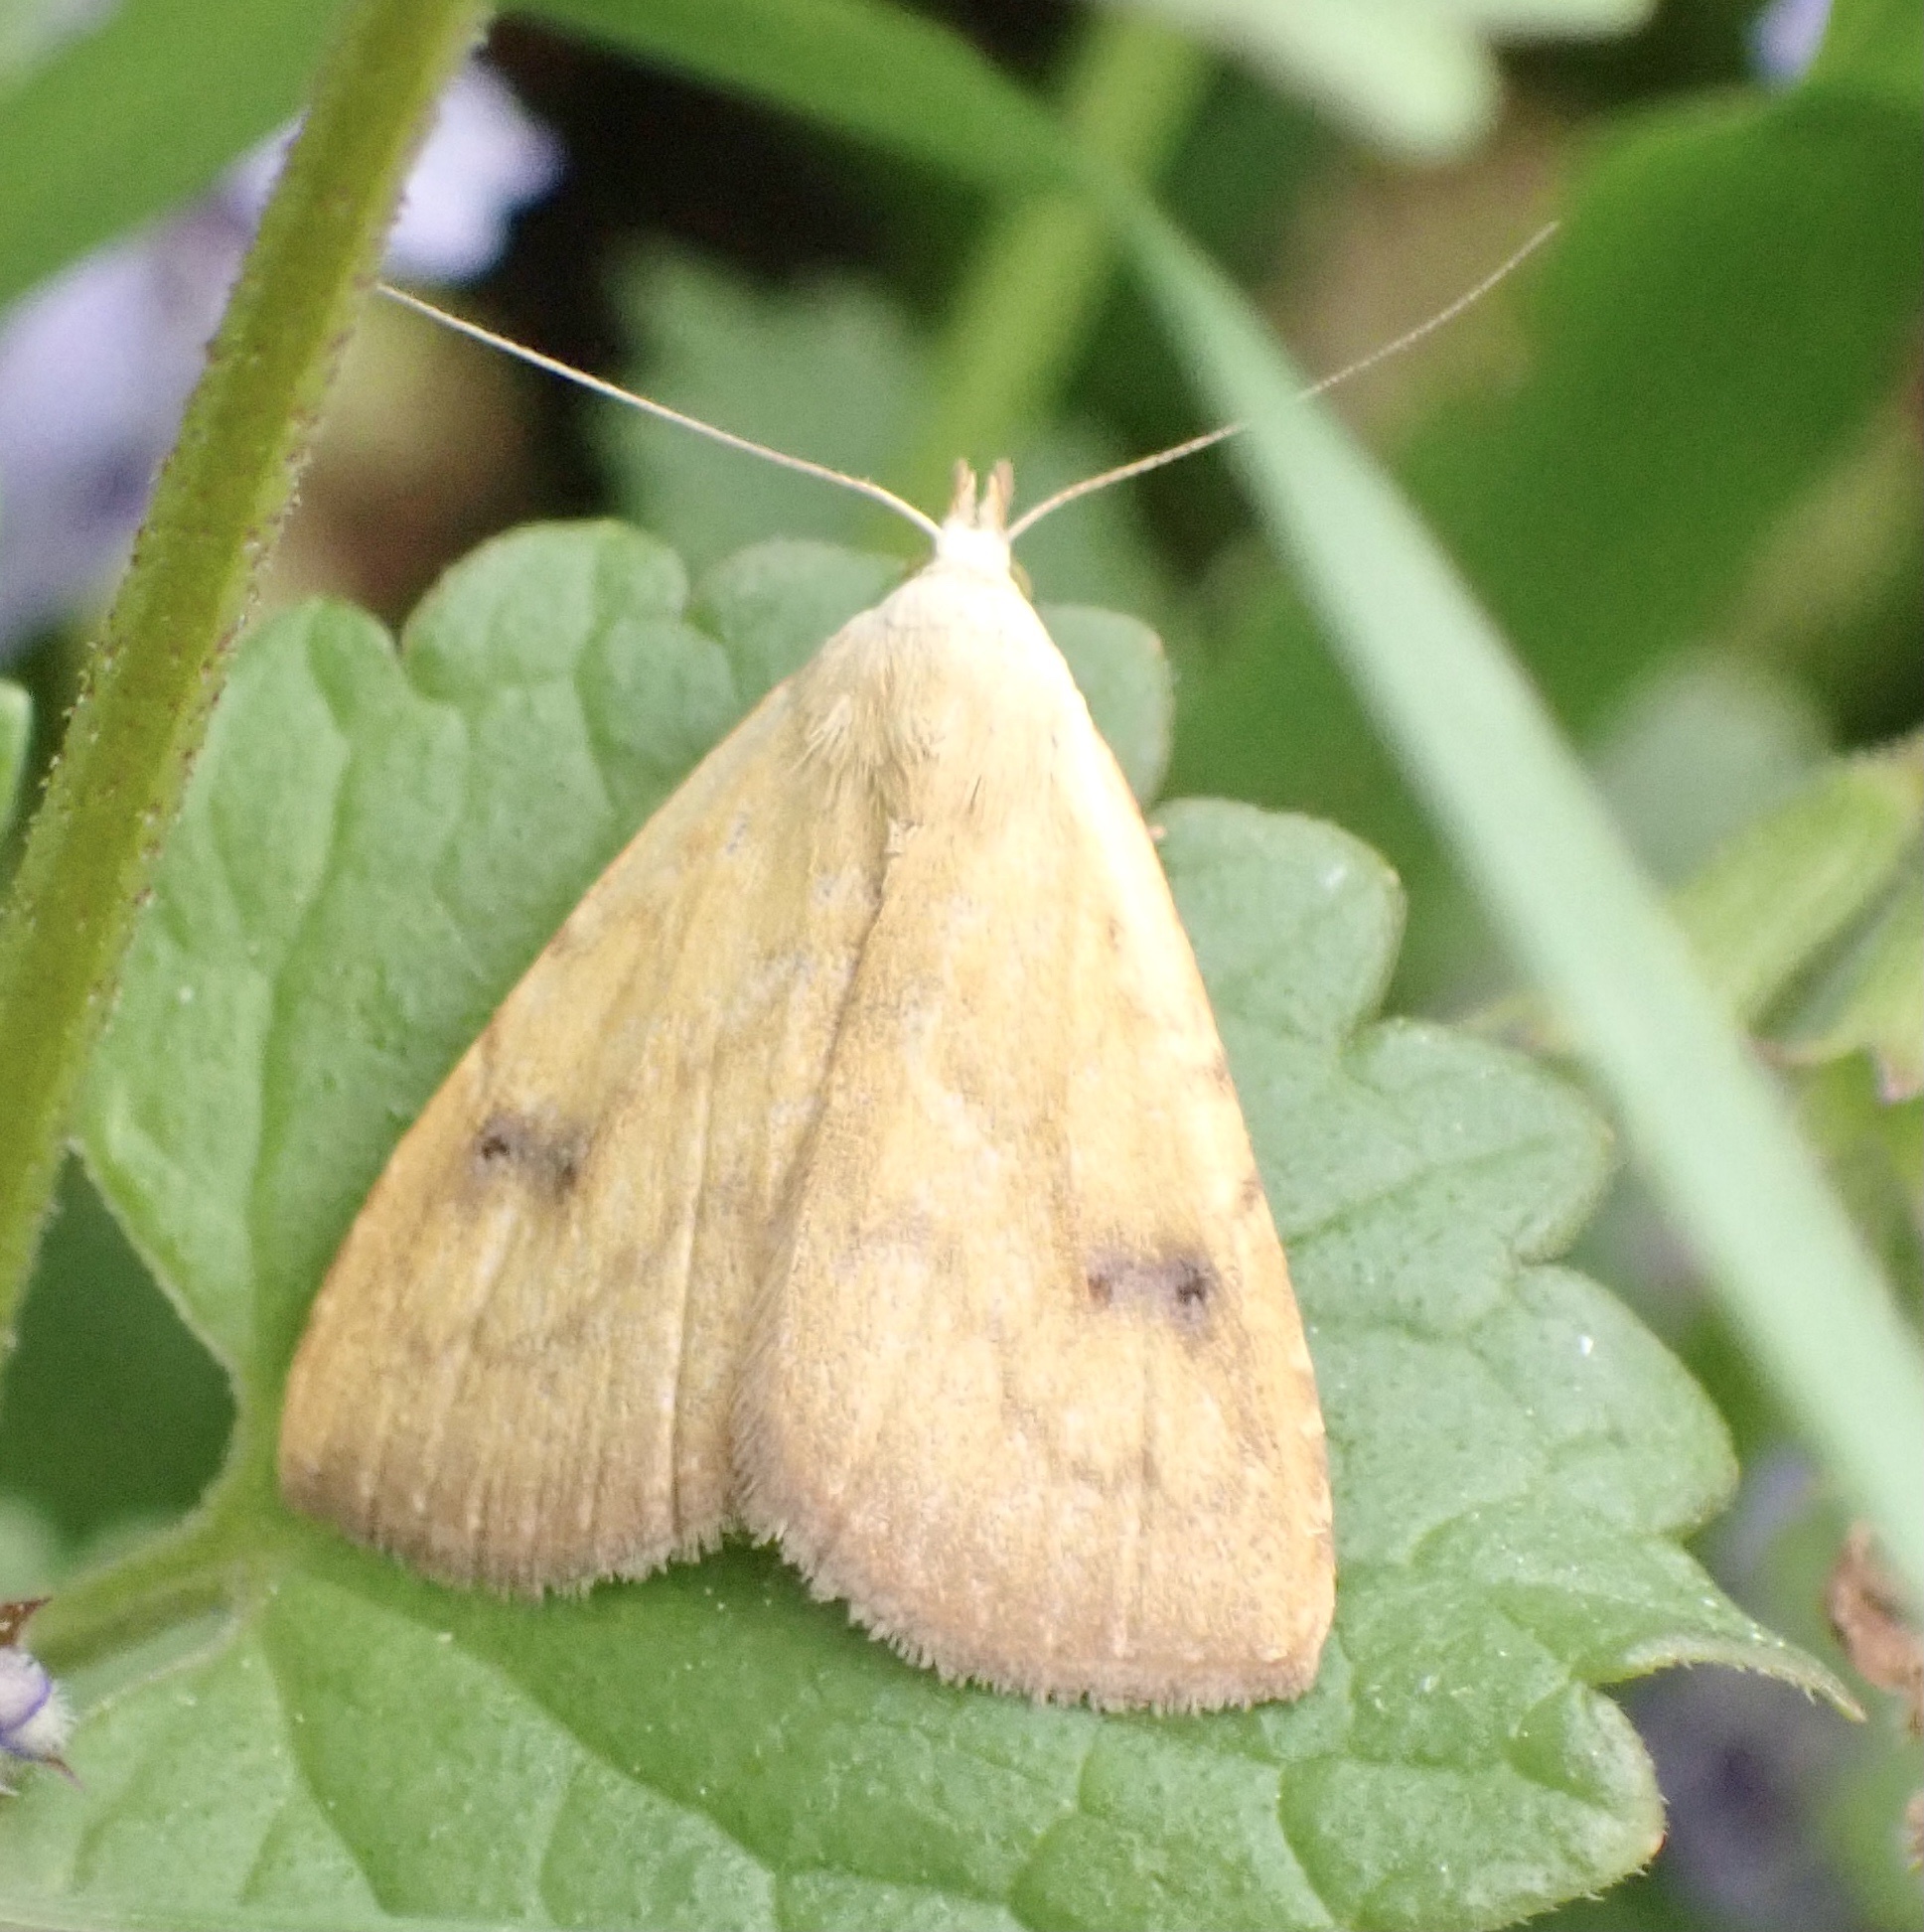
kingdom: Animalia
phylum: Arthropoda
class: Insecta
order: Lepidoptera
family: Erebidae
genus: Rivula
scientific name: Rivula sericealis
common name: Straw dot
